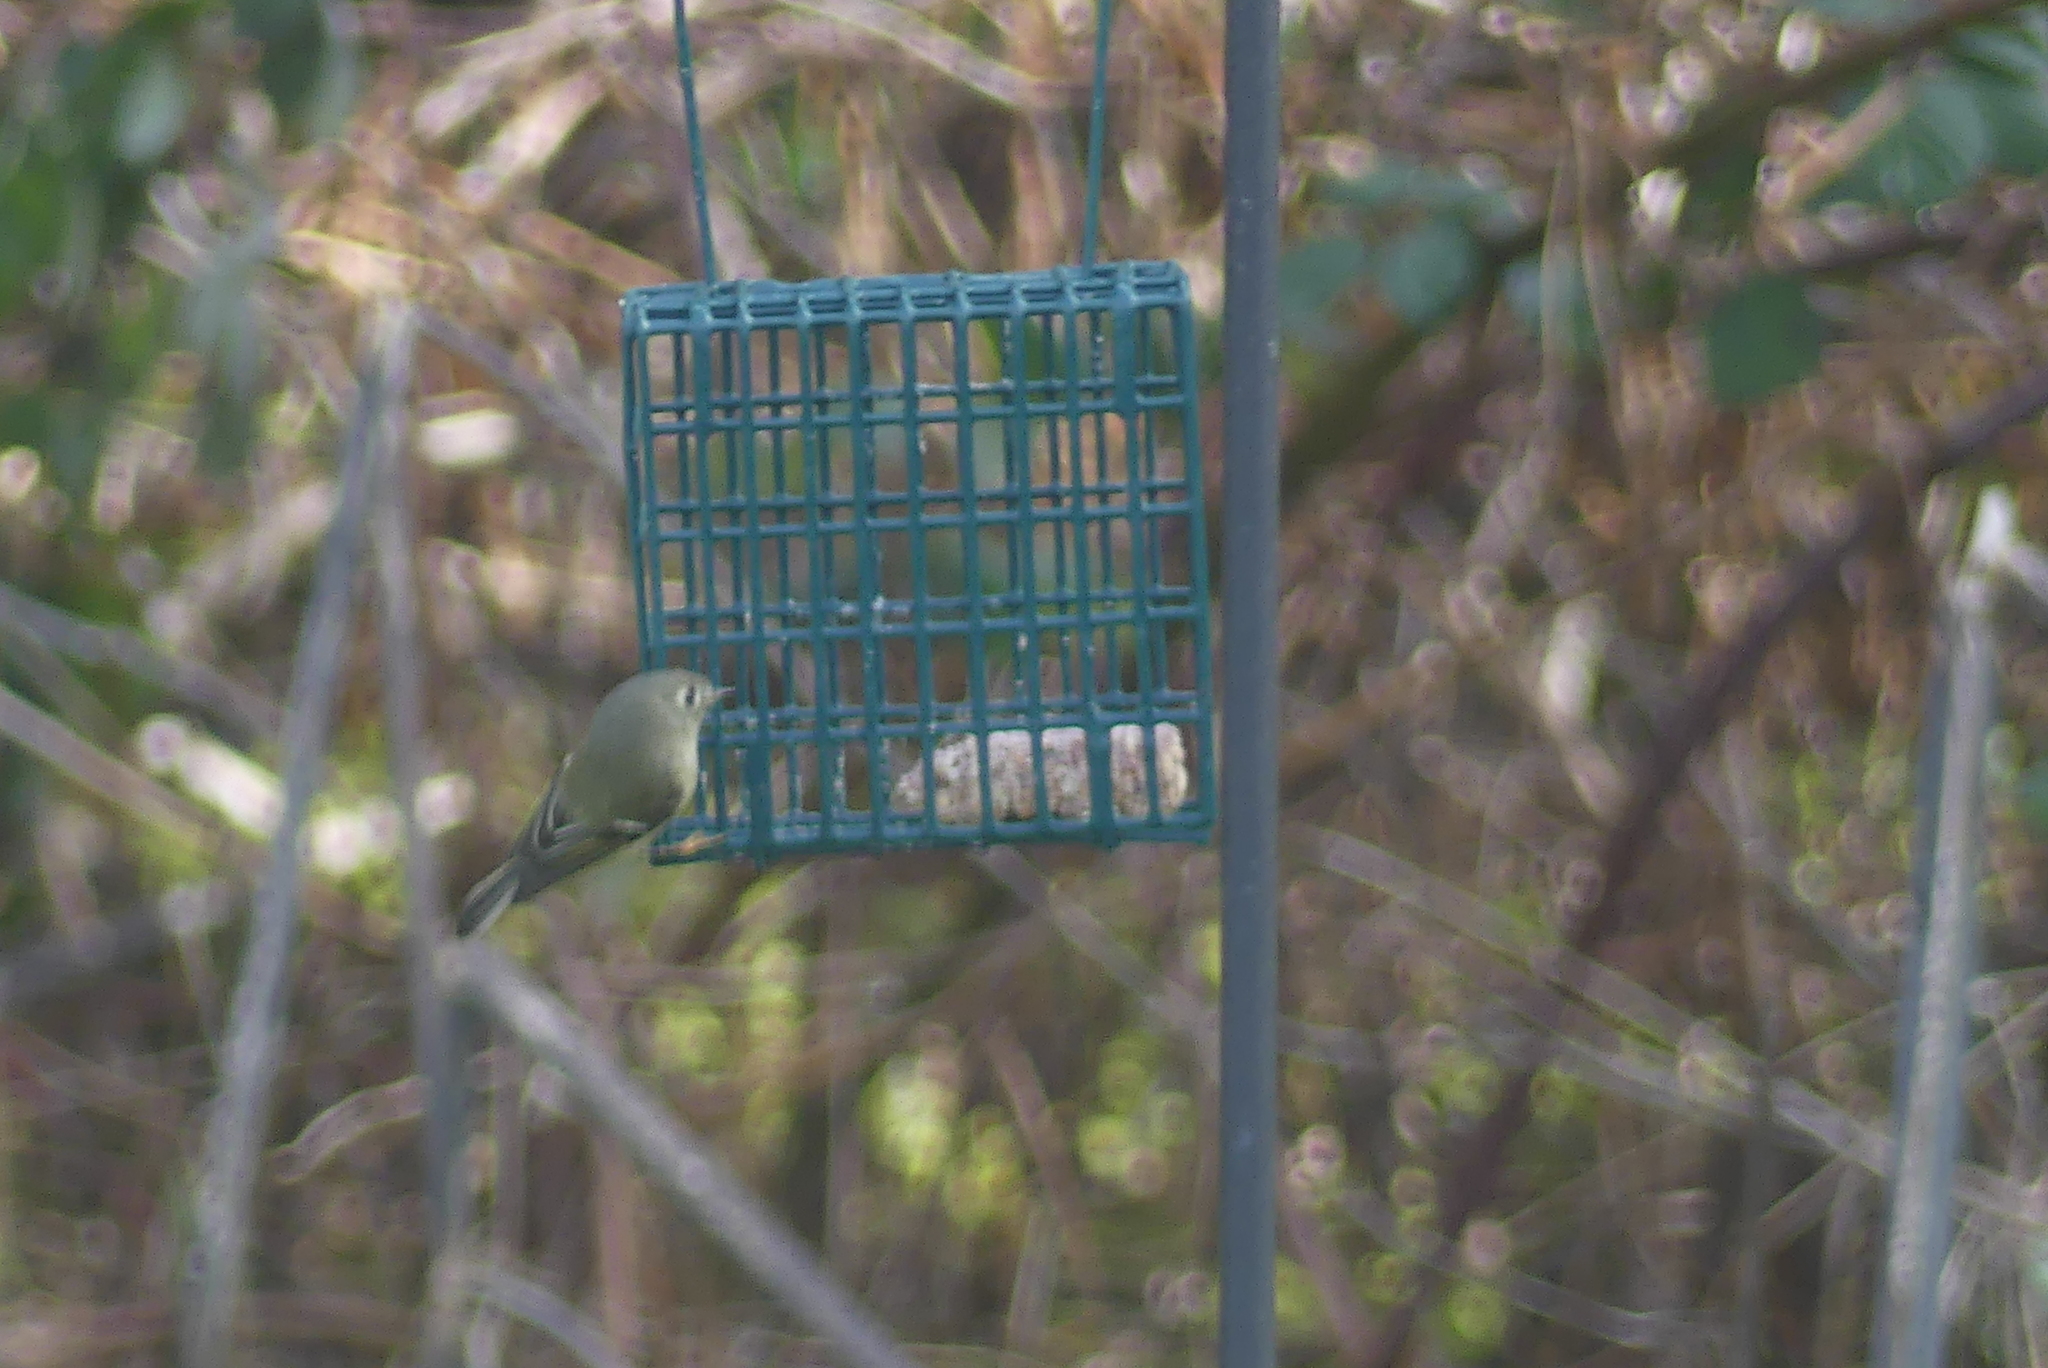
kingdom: Animalia
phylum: Chordata
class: Aves
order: Passeriformes
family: Regulidae
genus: Regulus
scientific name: Regulus calendula
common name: Ruby-crowned kinglet
